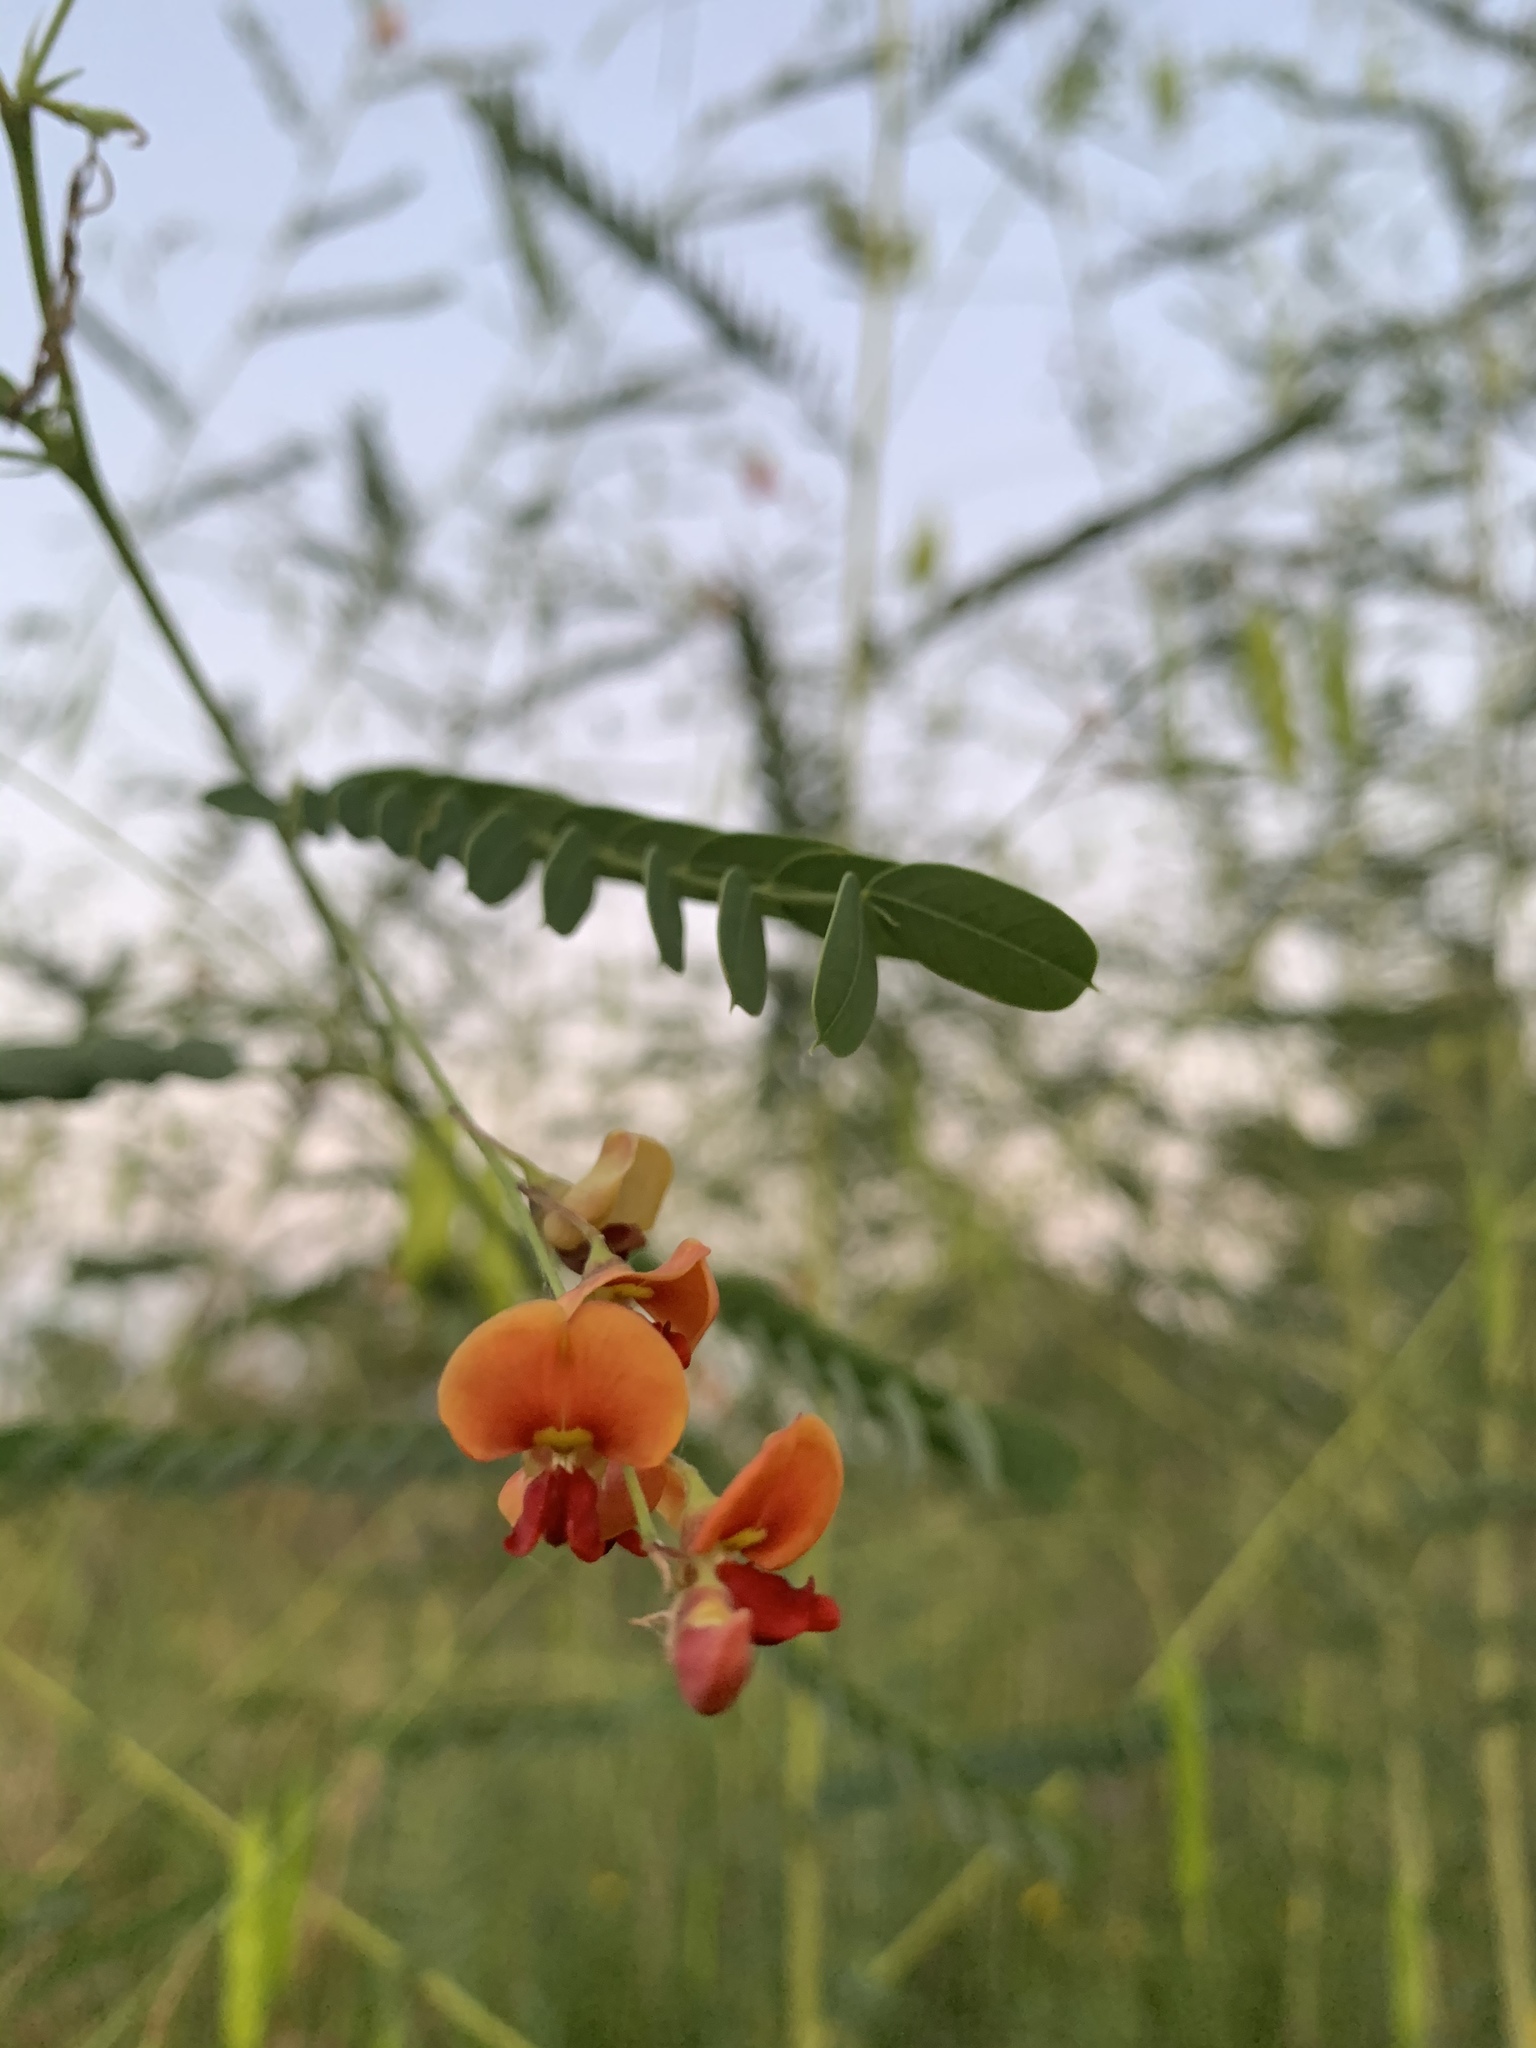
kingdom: Plantae
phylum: Tracheophyta
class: Magnoliopsida
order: Fabales
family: Fabaceae
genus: Sesbania
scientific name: Sesbania vesicaria
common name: Bagpod
